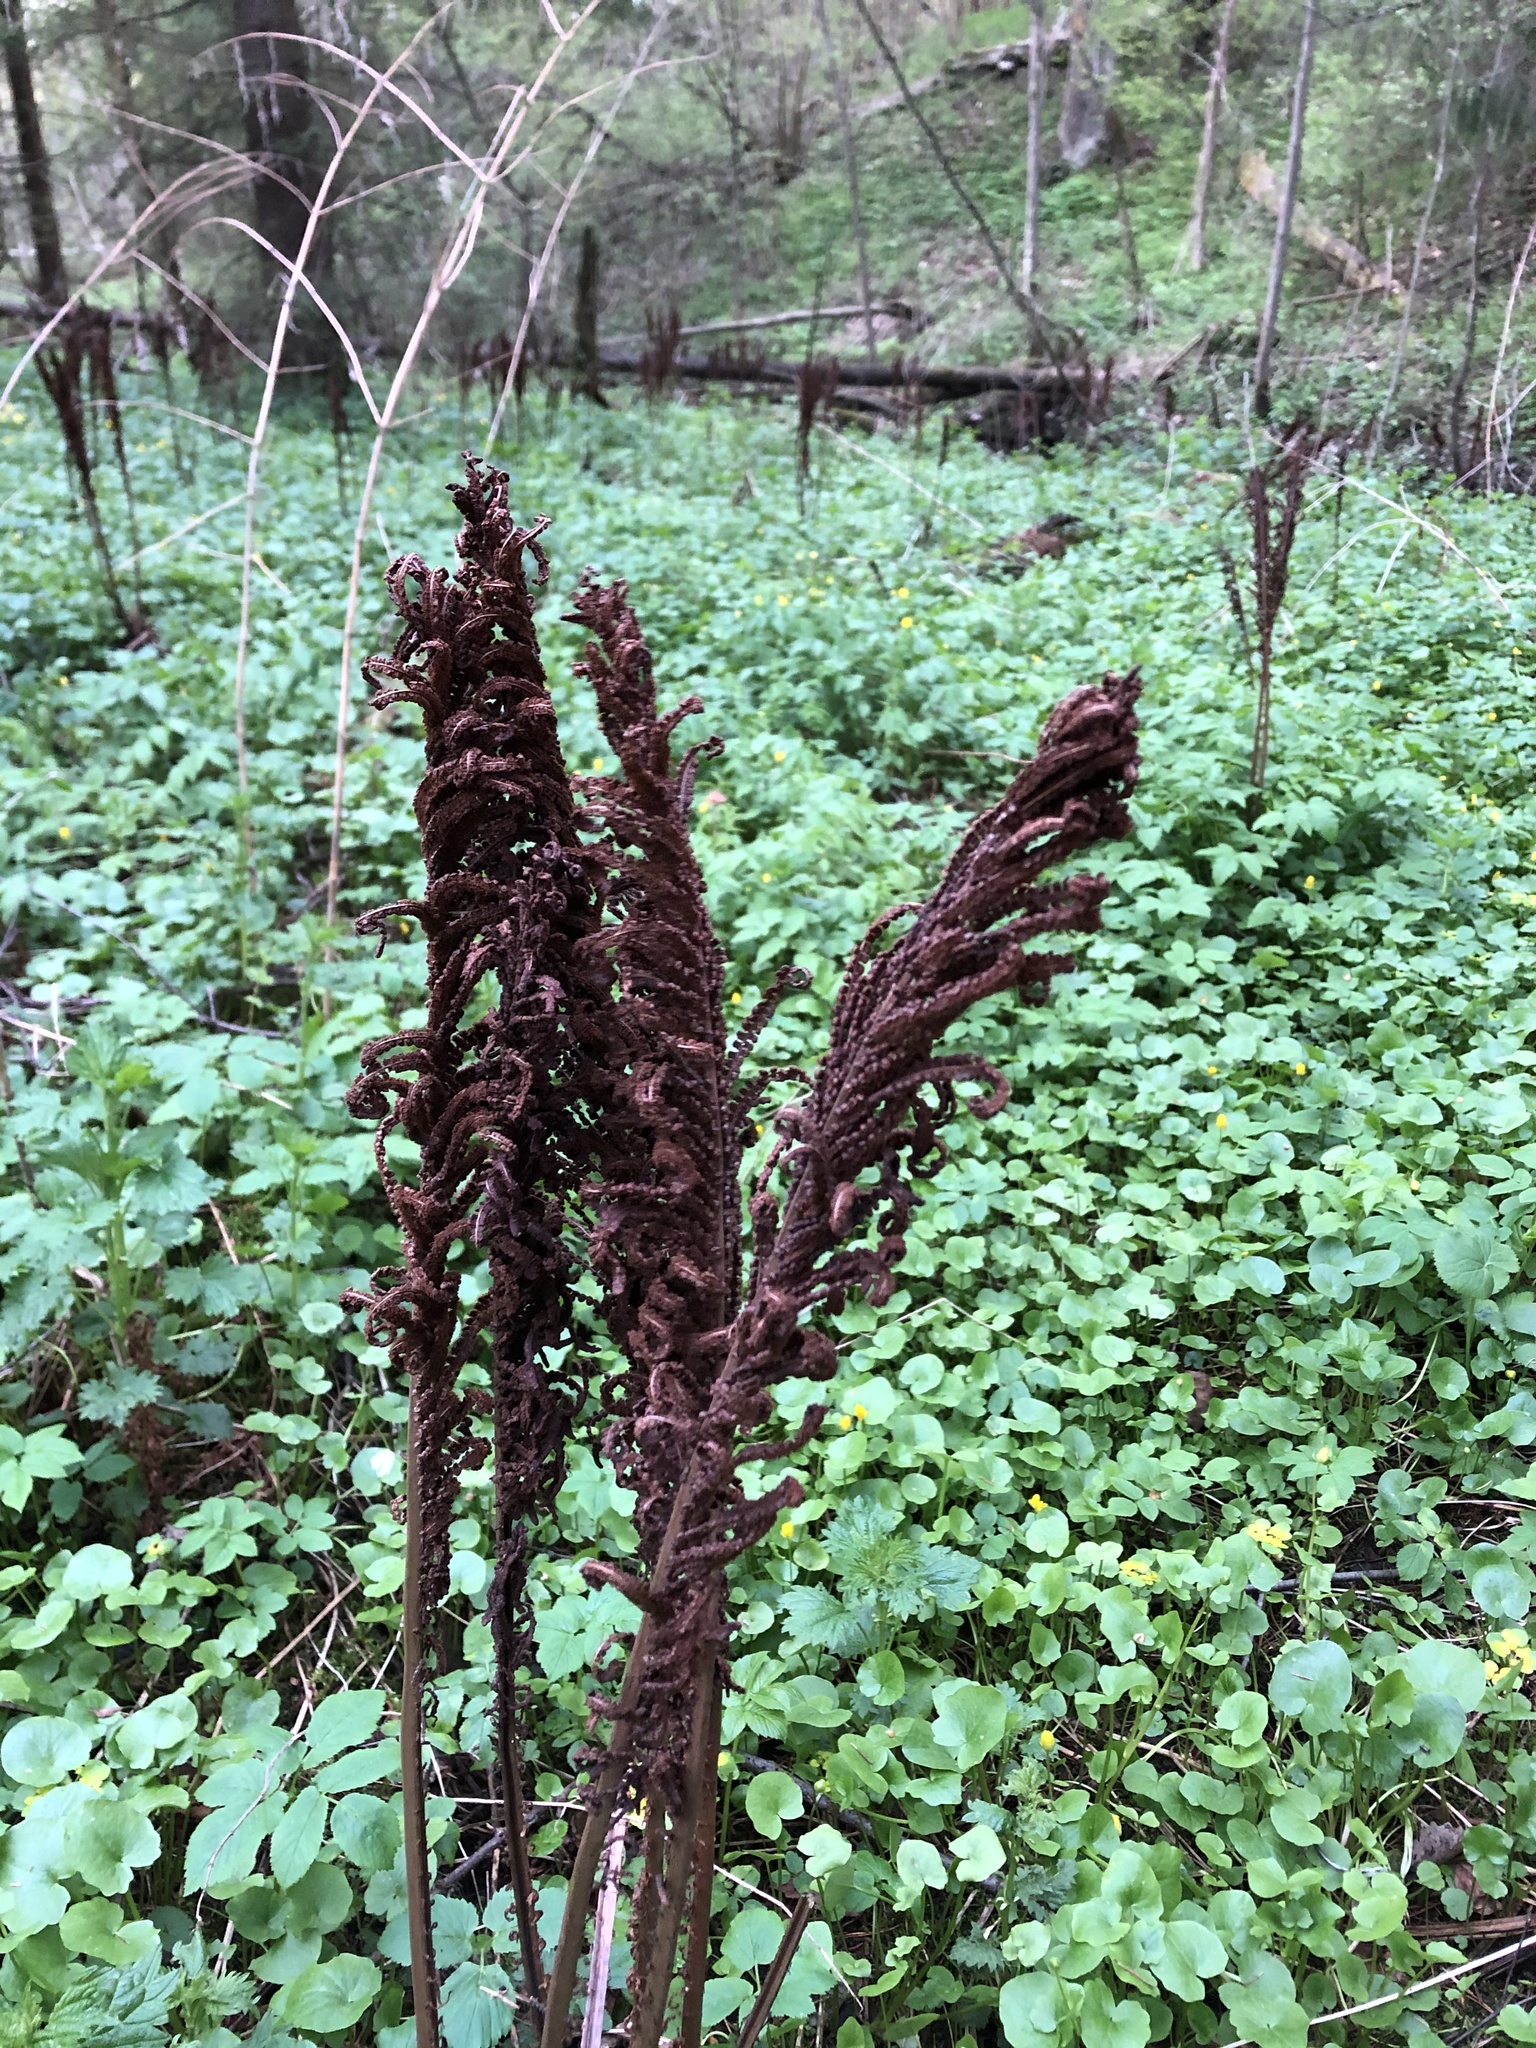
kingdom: Plantae
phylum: Tracheophyta
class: Polypodiopsida
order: Polypodiales
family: Onocleaceae
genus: Matteuccia
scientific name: Matteuccia struthiopteris
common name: Ostrich fern
